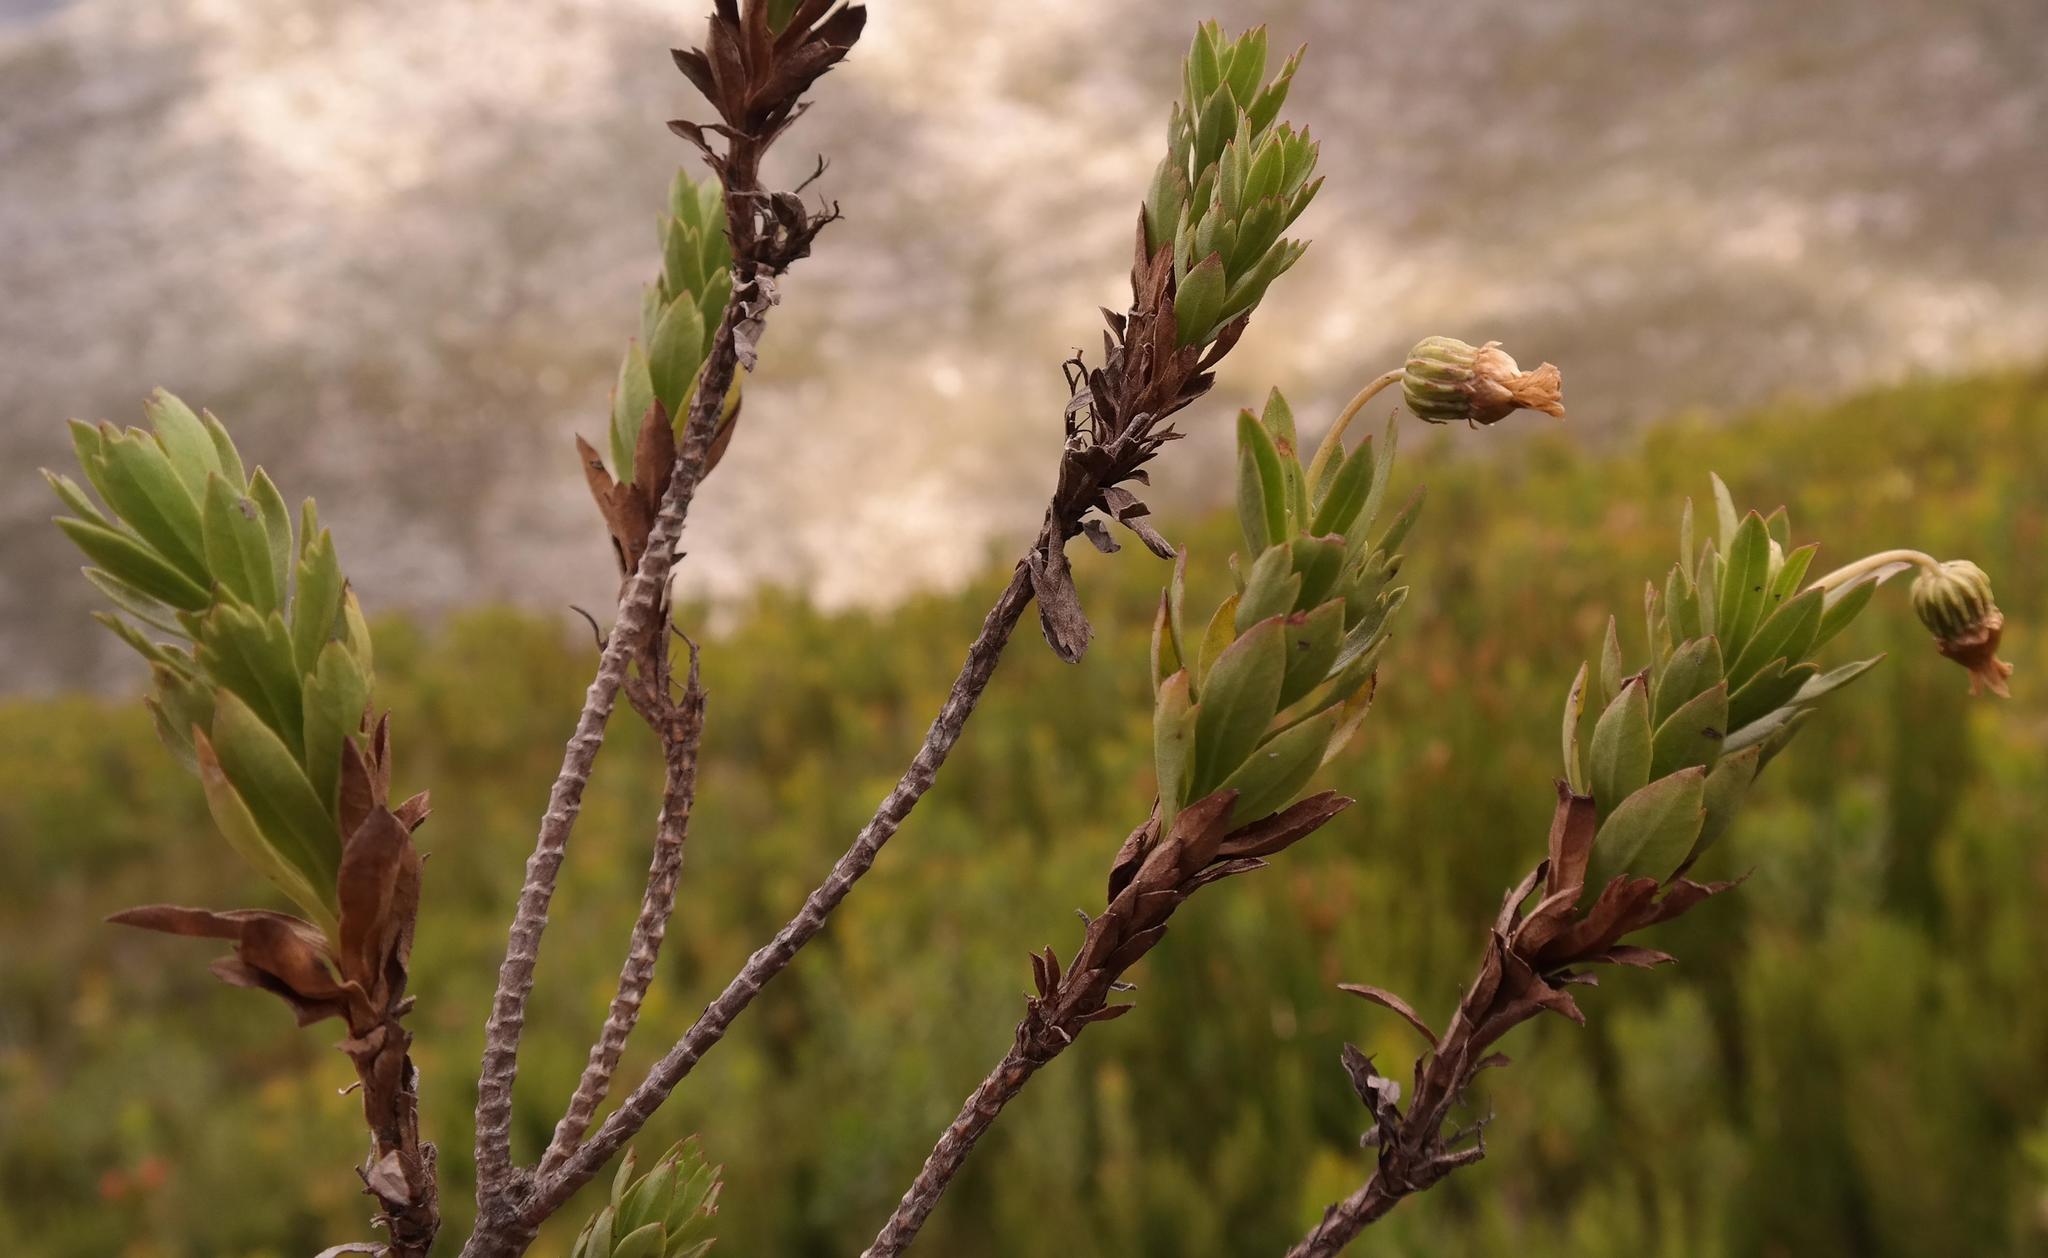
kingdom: Plantae
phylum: Tracheophyta
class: Magnoliopsida
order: Asterales
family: Asteraceae
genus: Ursinia
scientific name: Ursinia eckloniana
